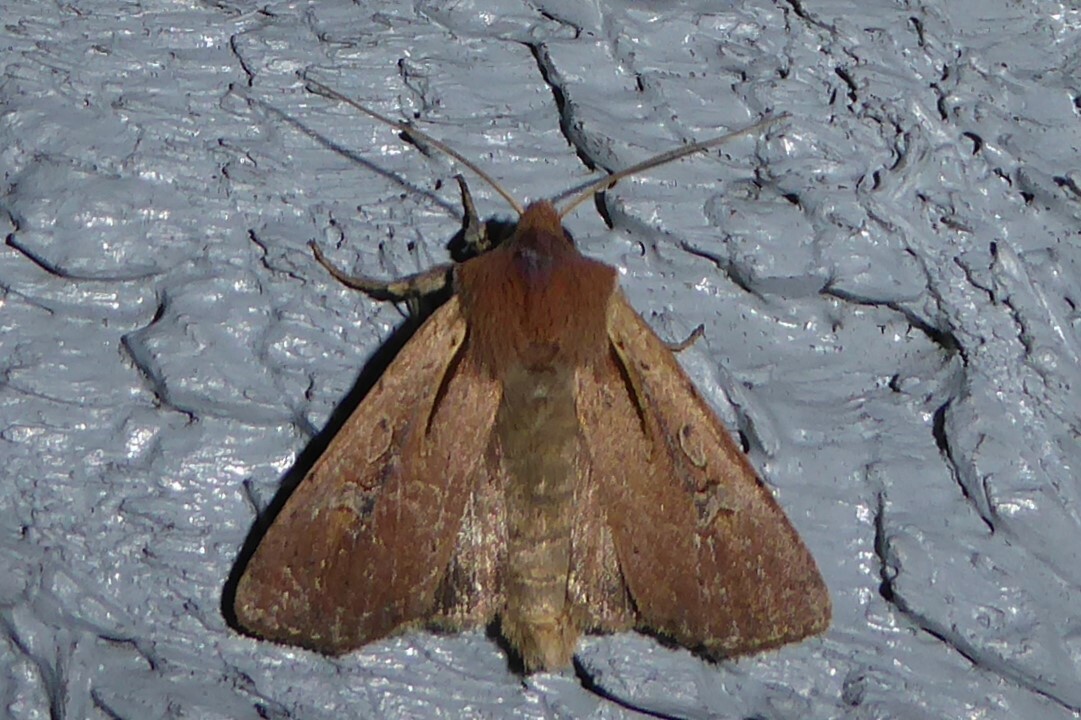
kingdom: Animalia
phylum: Arthropoda
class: Insecta
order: Lepidoptera
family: Noctuidae
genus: Ichneutica
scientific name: Ichneutica atristriga
